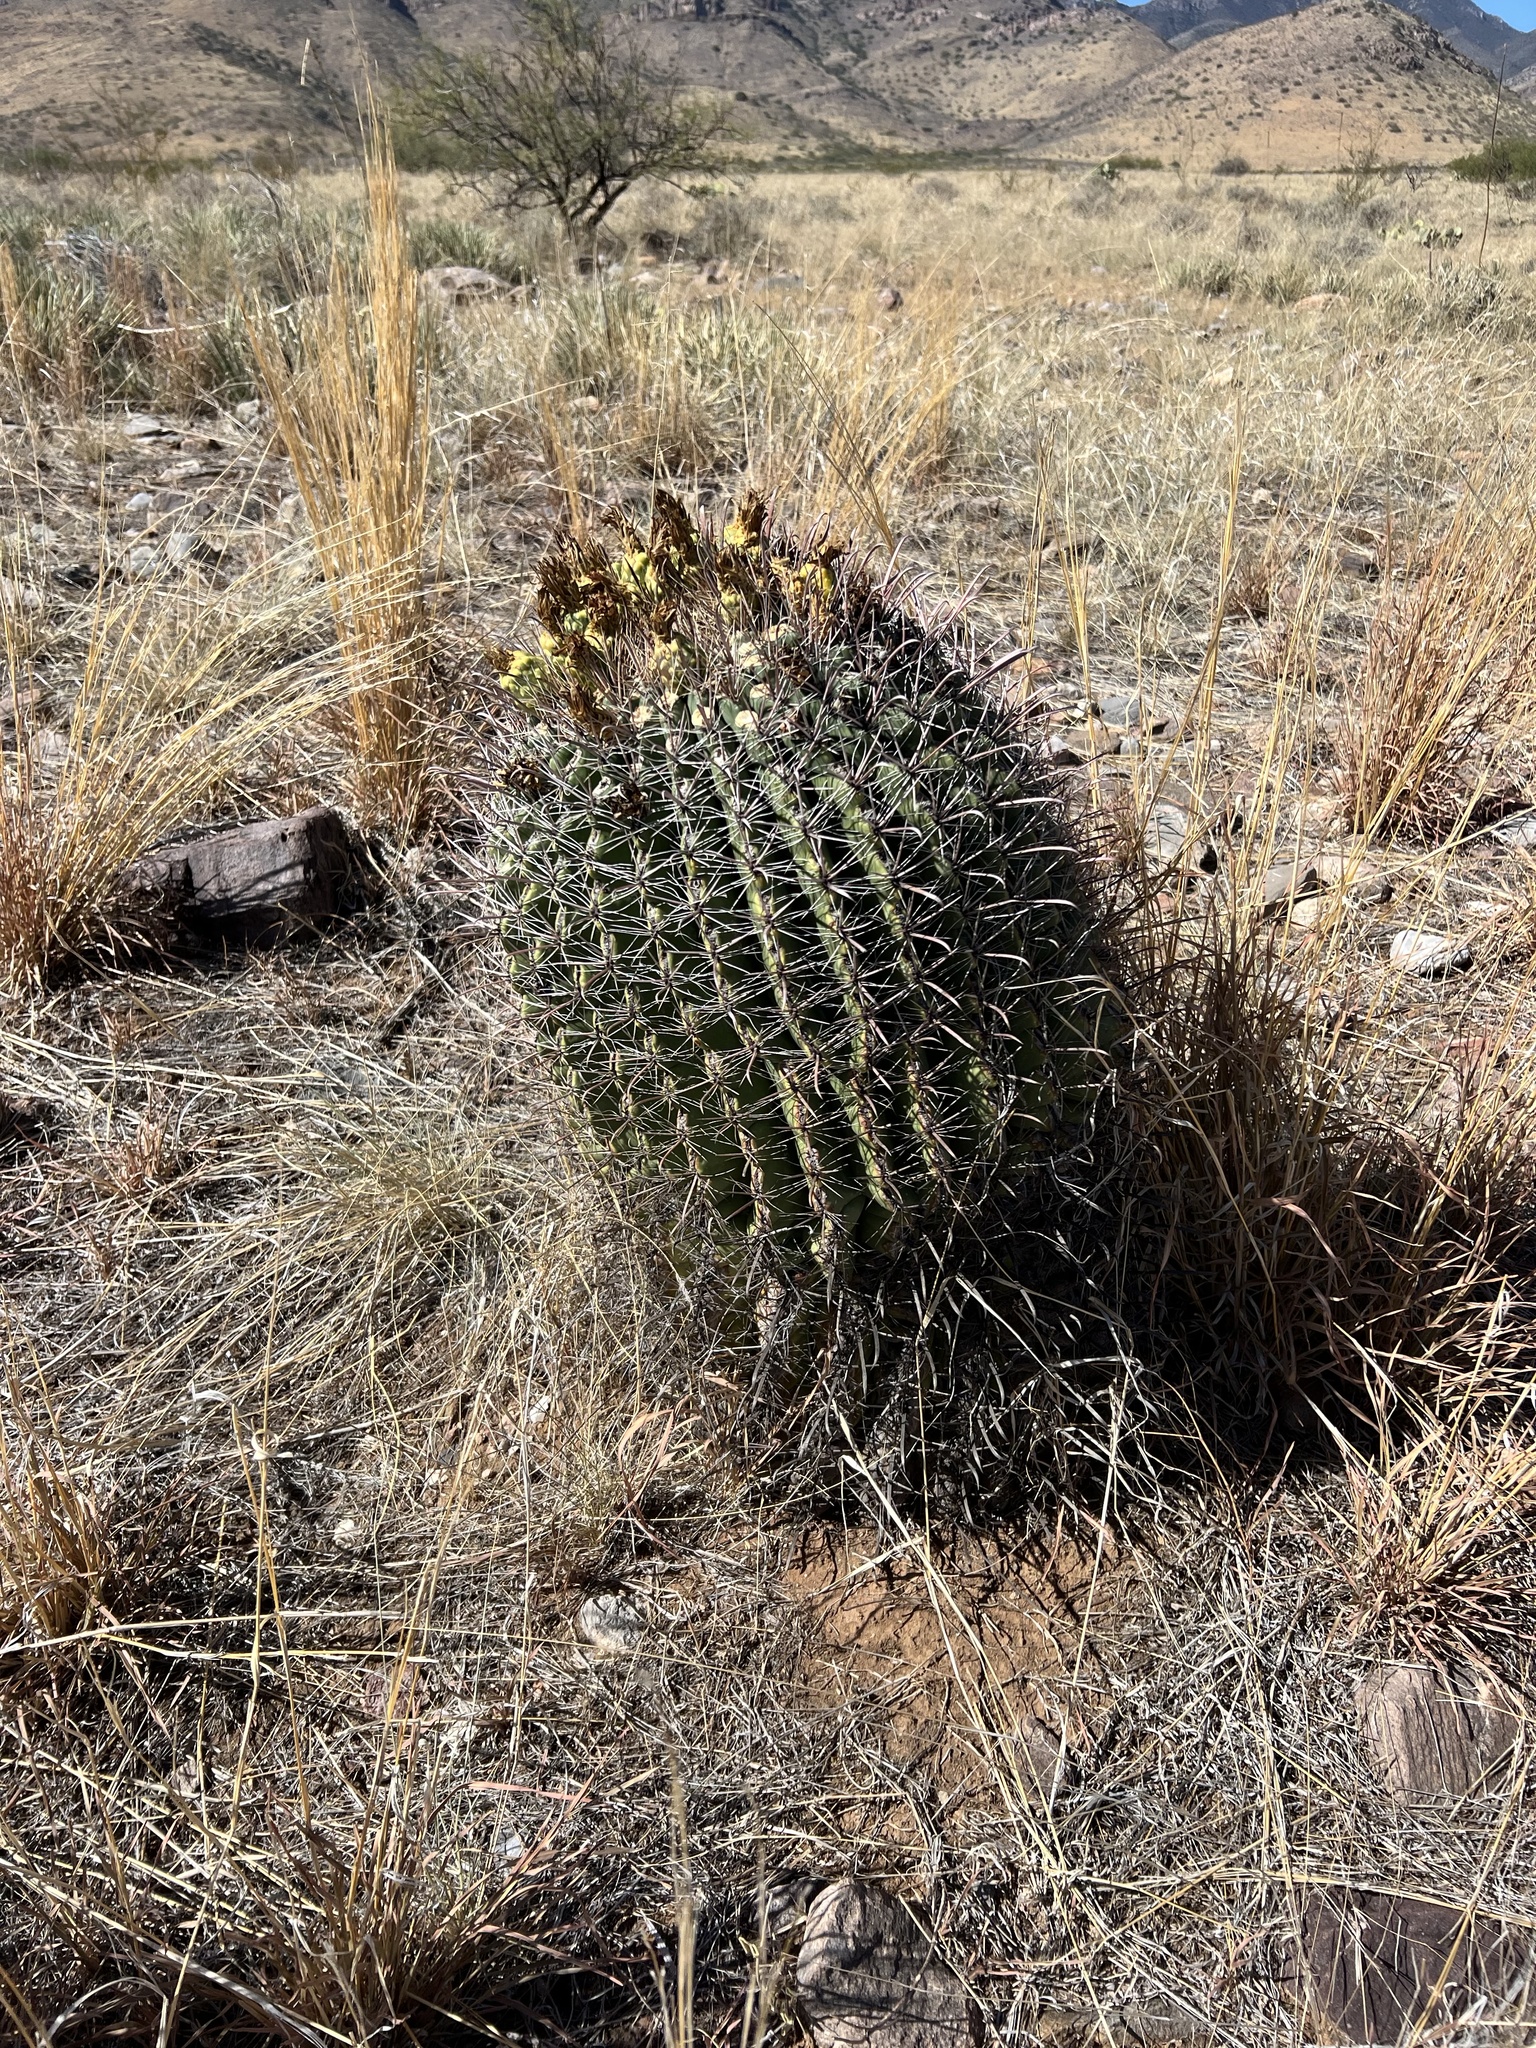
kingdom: Plantae
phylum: Tracheophyta
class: Magnoliopsida
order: Caryophyllales
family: Cactaceae
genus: Ferocactus
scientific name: Ferocactus wislizeni
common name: Candy barrel cactus
